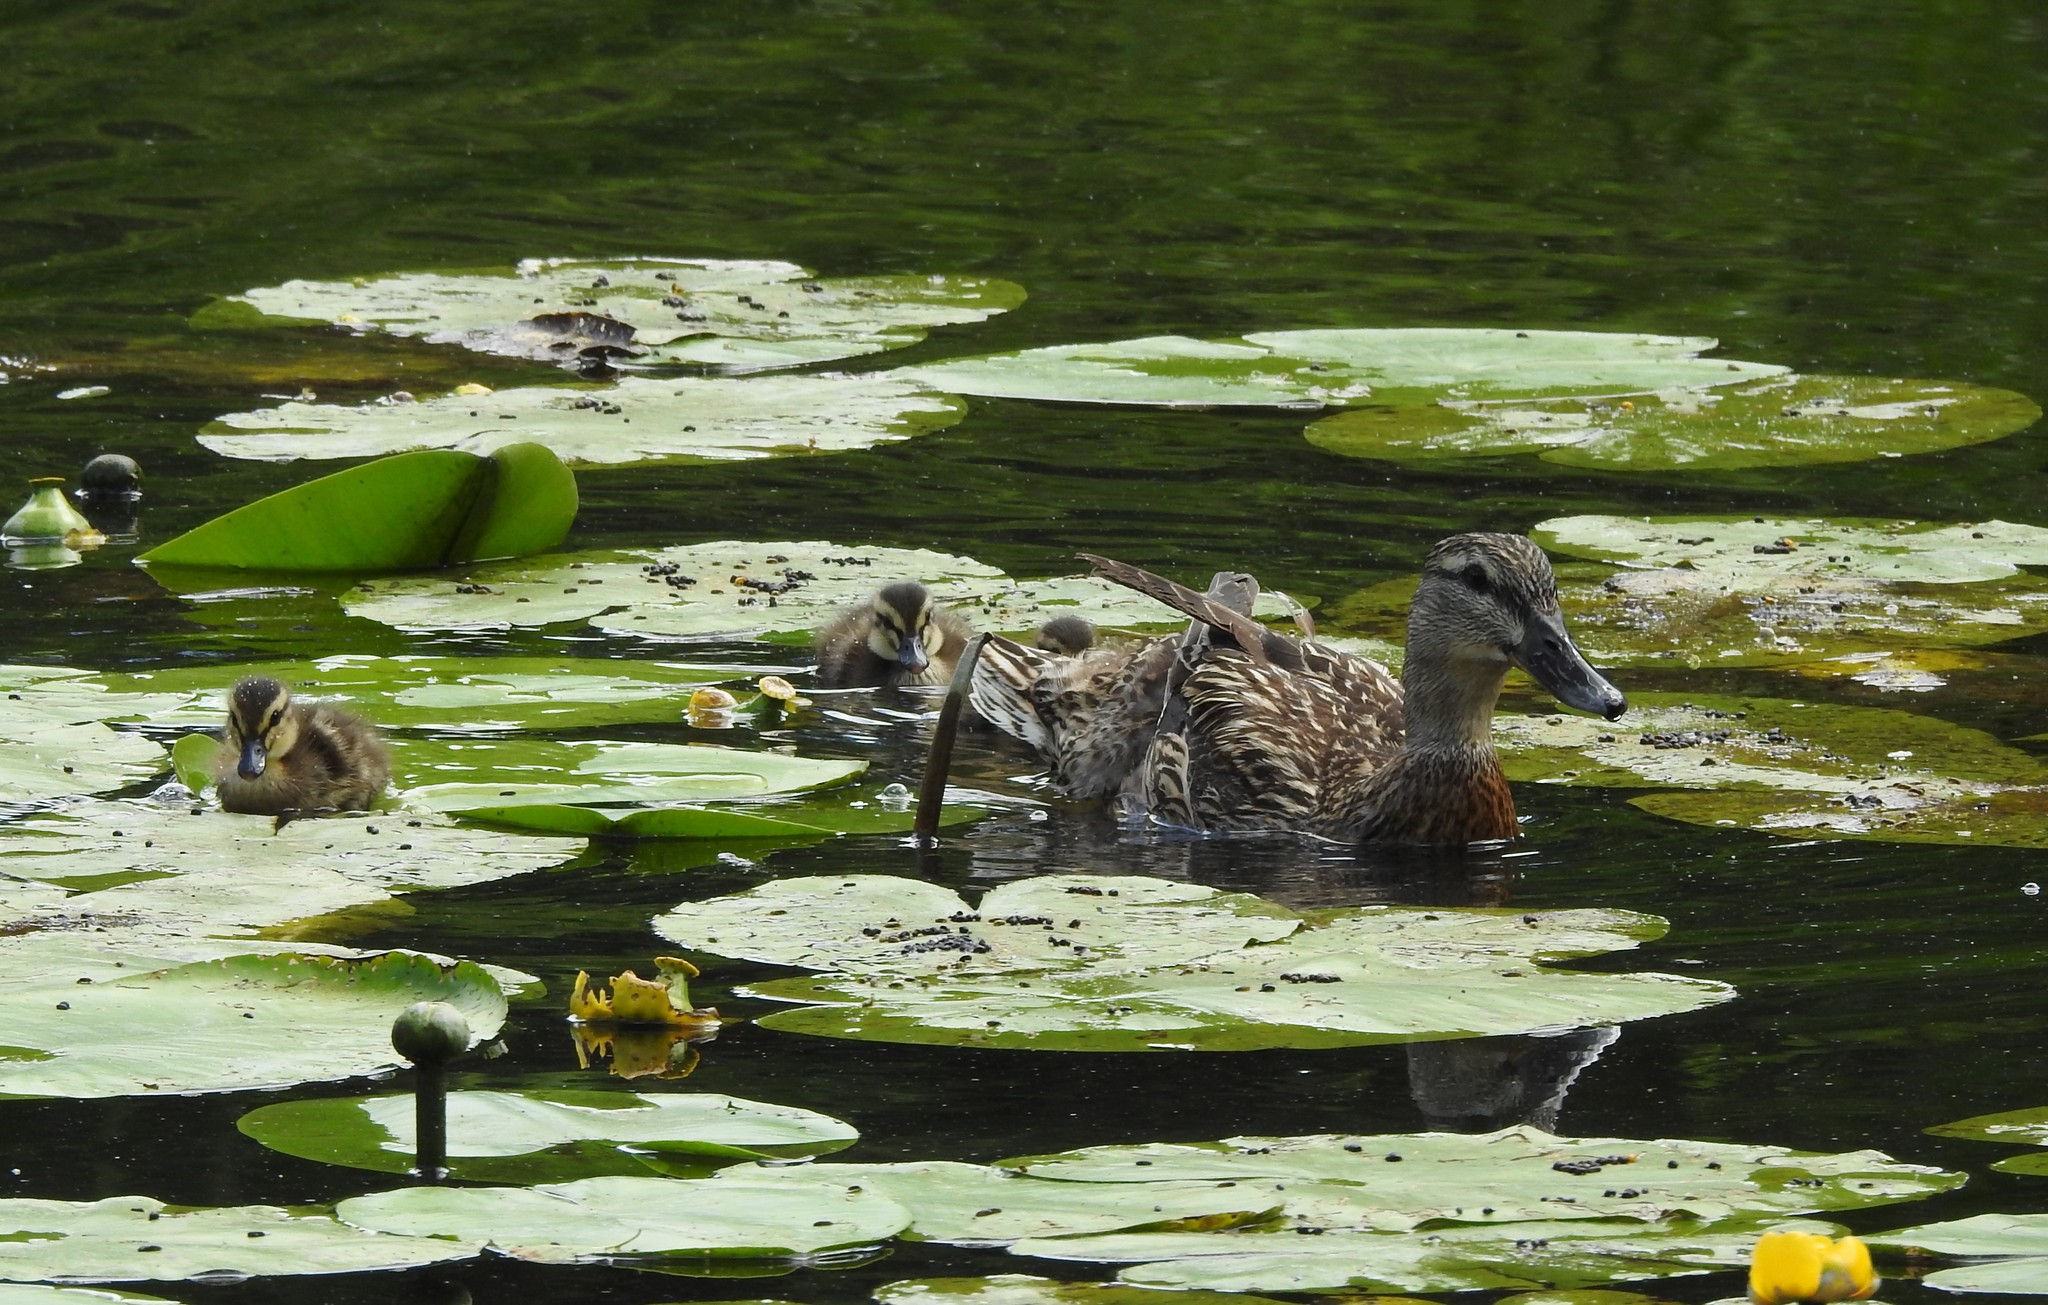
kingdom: Animalia
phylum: Chordata
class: Aves
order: Anseriformes
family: Anatidae
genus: Anas
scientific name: Anas platyrhynchos
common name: Mallard
